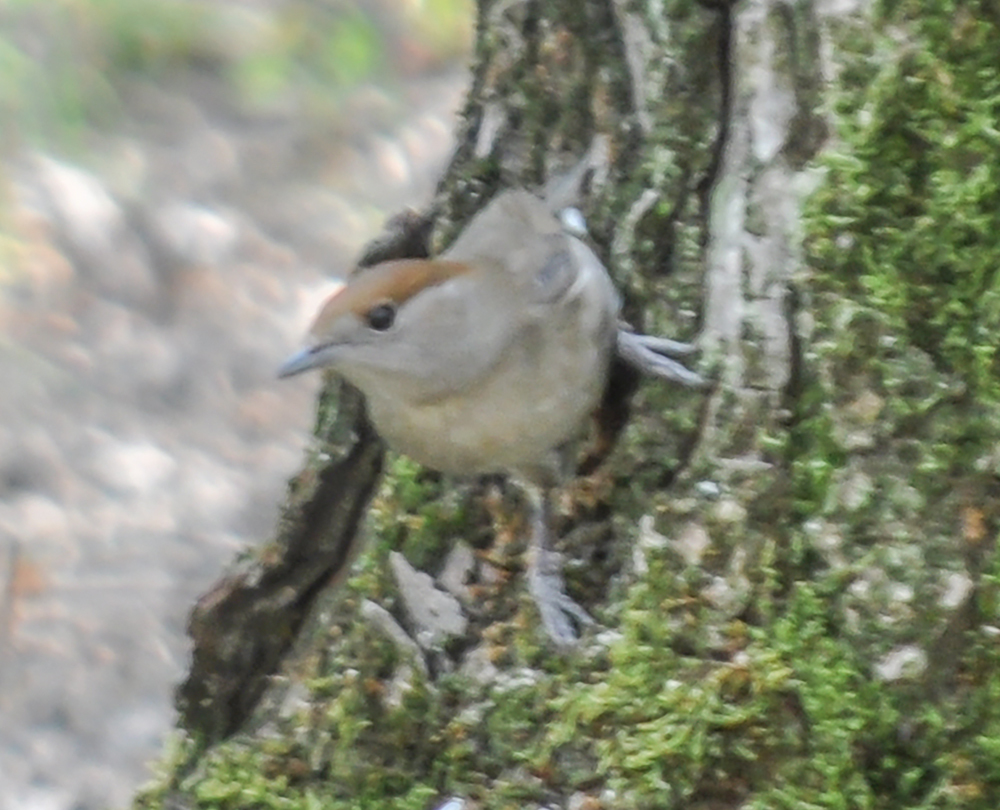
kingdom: Animalia
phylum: Chordata
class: Aves
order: Passeriformes
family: Sylviidae
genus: Sylvia
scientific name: Sylvia atricapilla
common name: Eurasian blackcap
